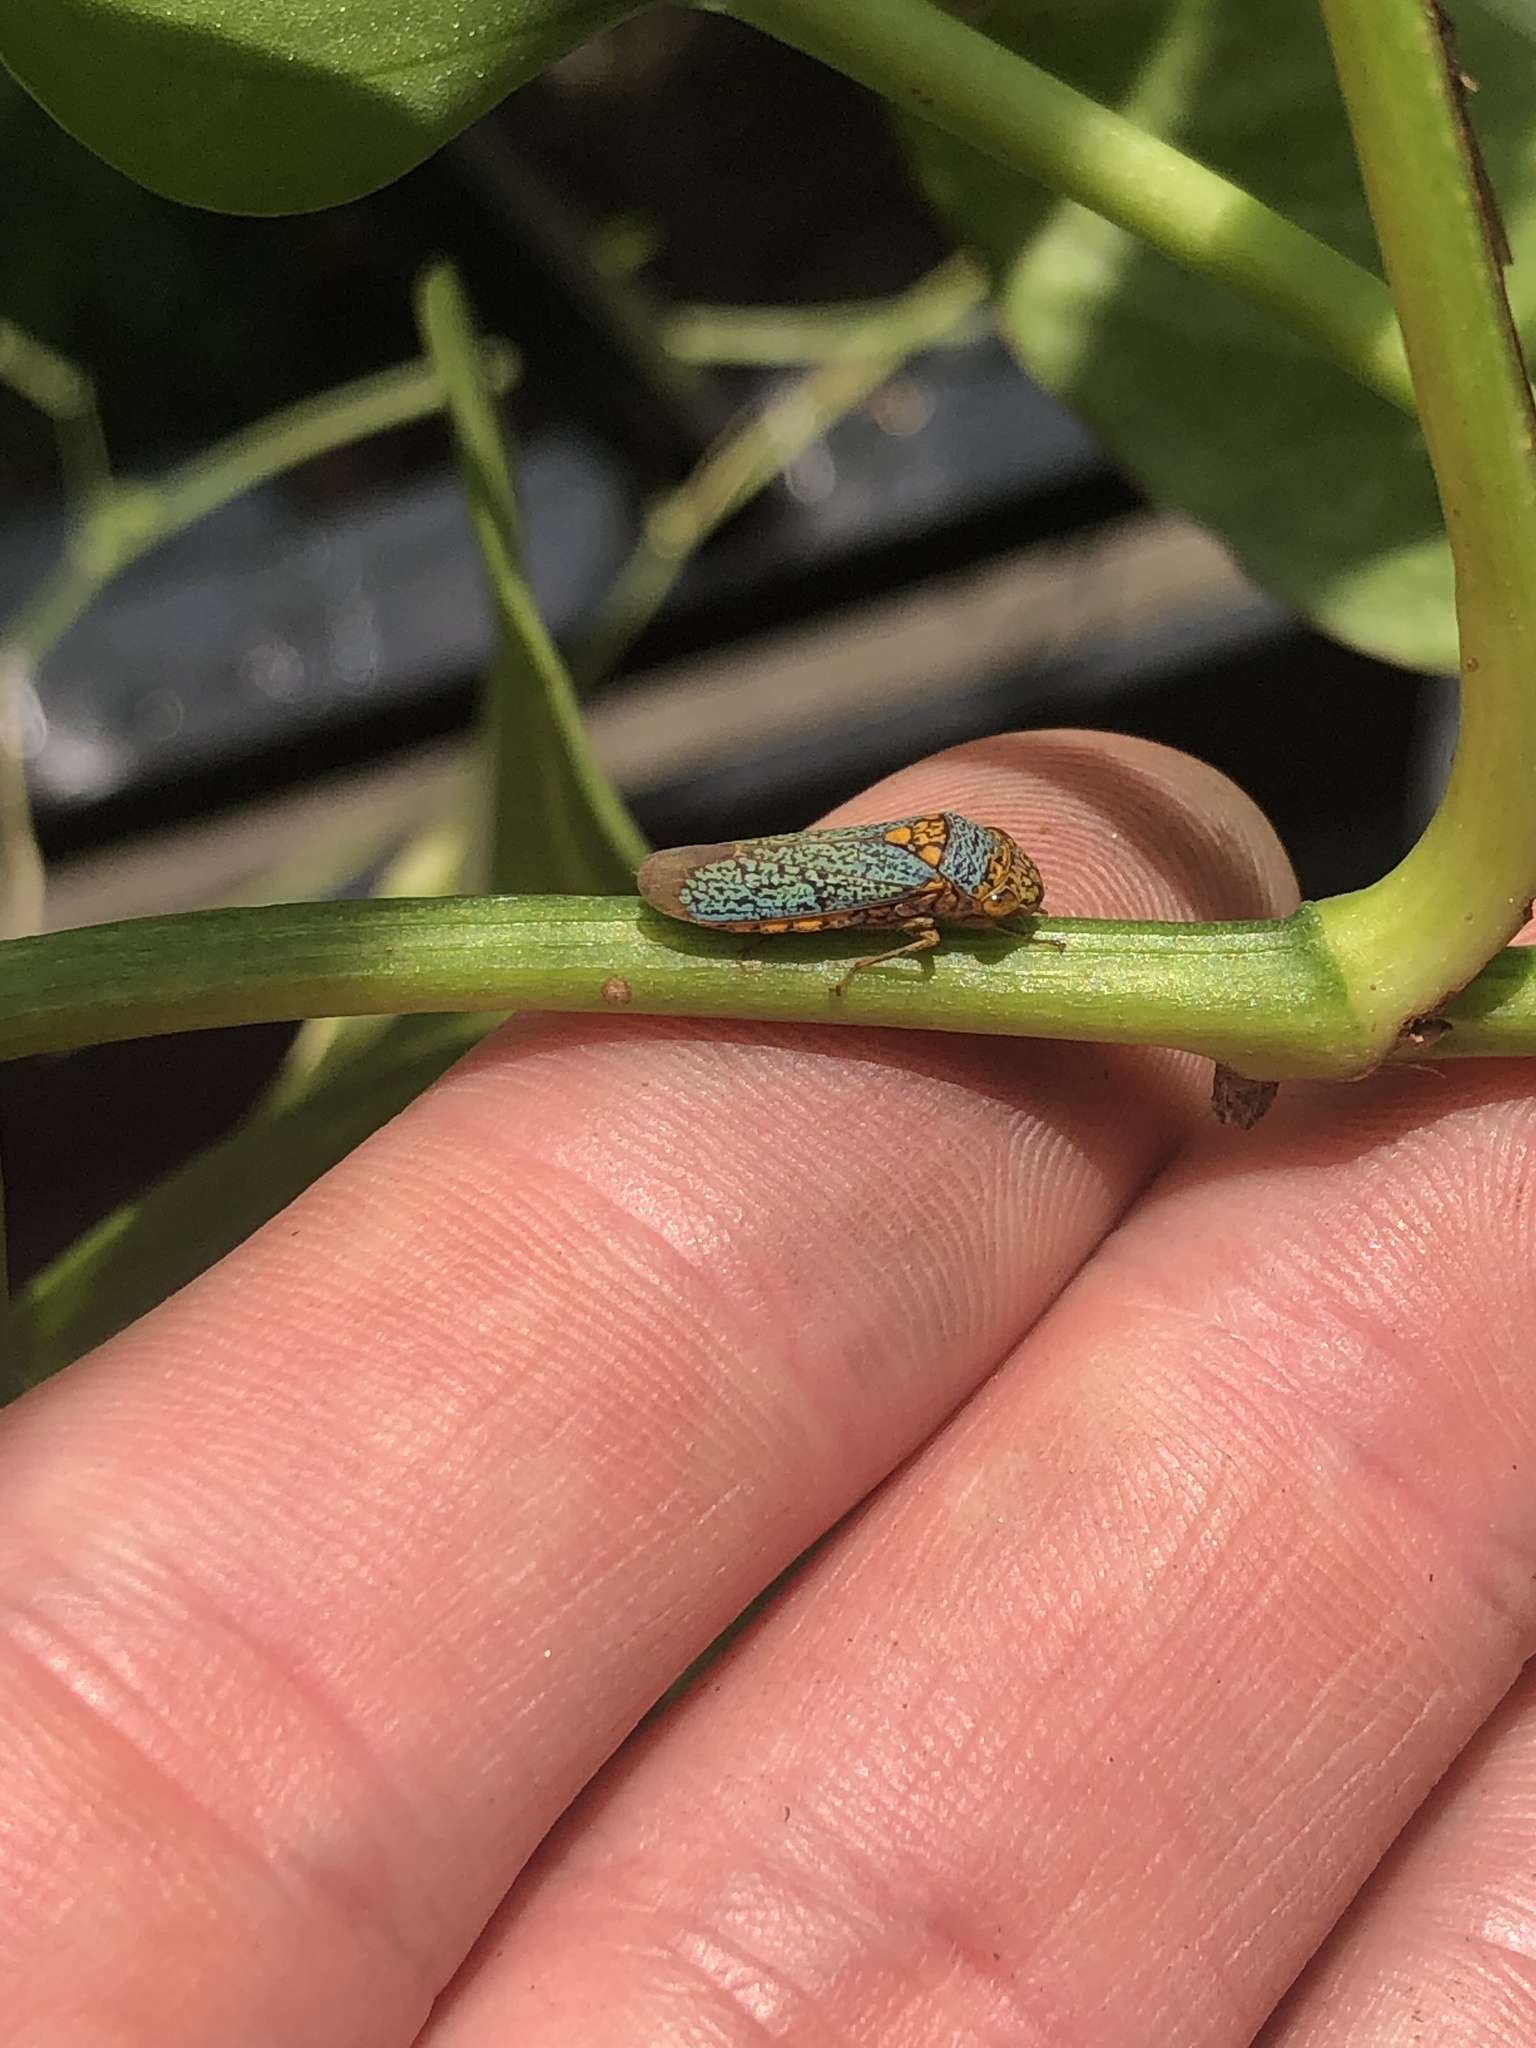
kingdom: Animalia
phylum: Arthropoda
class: Insecta
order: Hemiptera
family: Cicadellidae
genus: Oncometopia
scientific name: Oncometopia orbona
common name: Broad-headed sharpshooter
